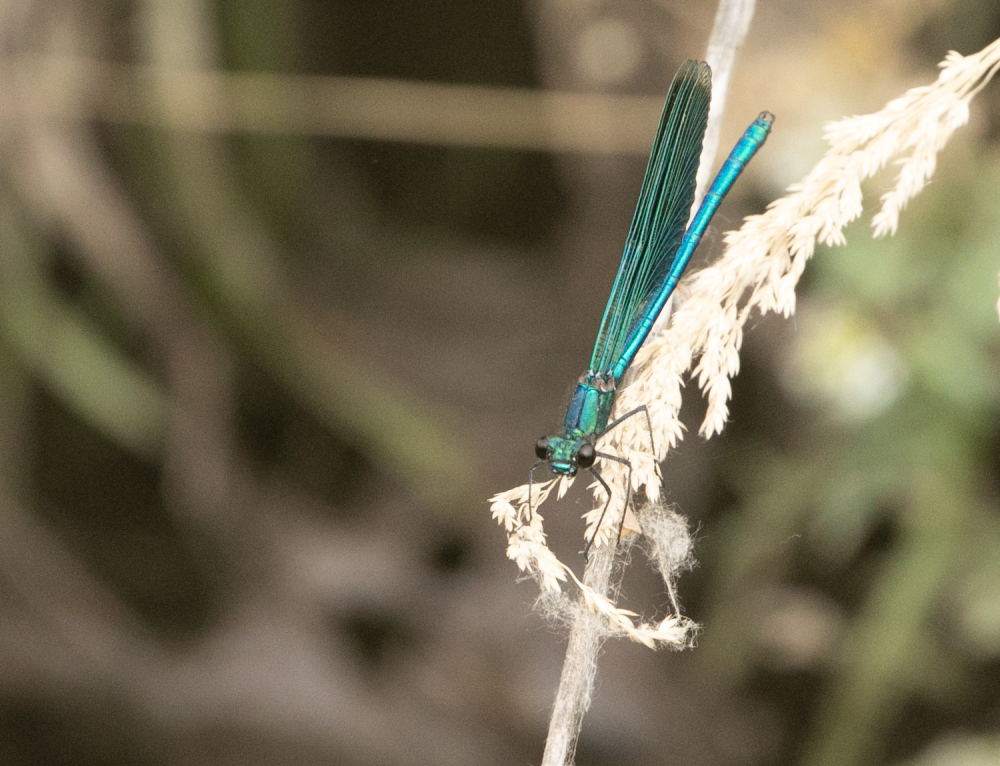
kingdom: Animalia
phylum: Arthropoda
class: Insecta
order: Odonata
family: Calopterygidae
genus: Calopteryx
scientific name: Calopteryx splendens
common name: Banded demoiselle
